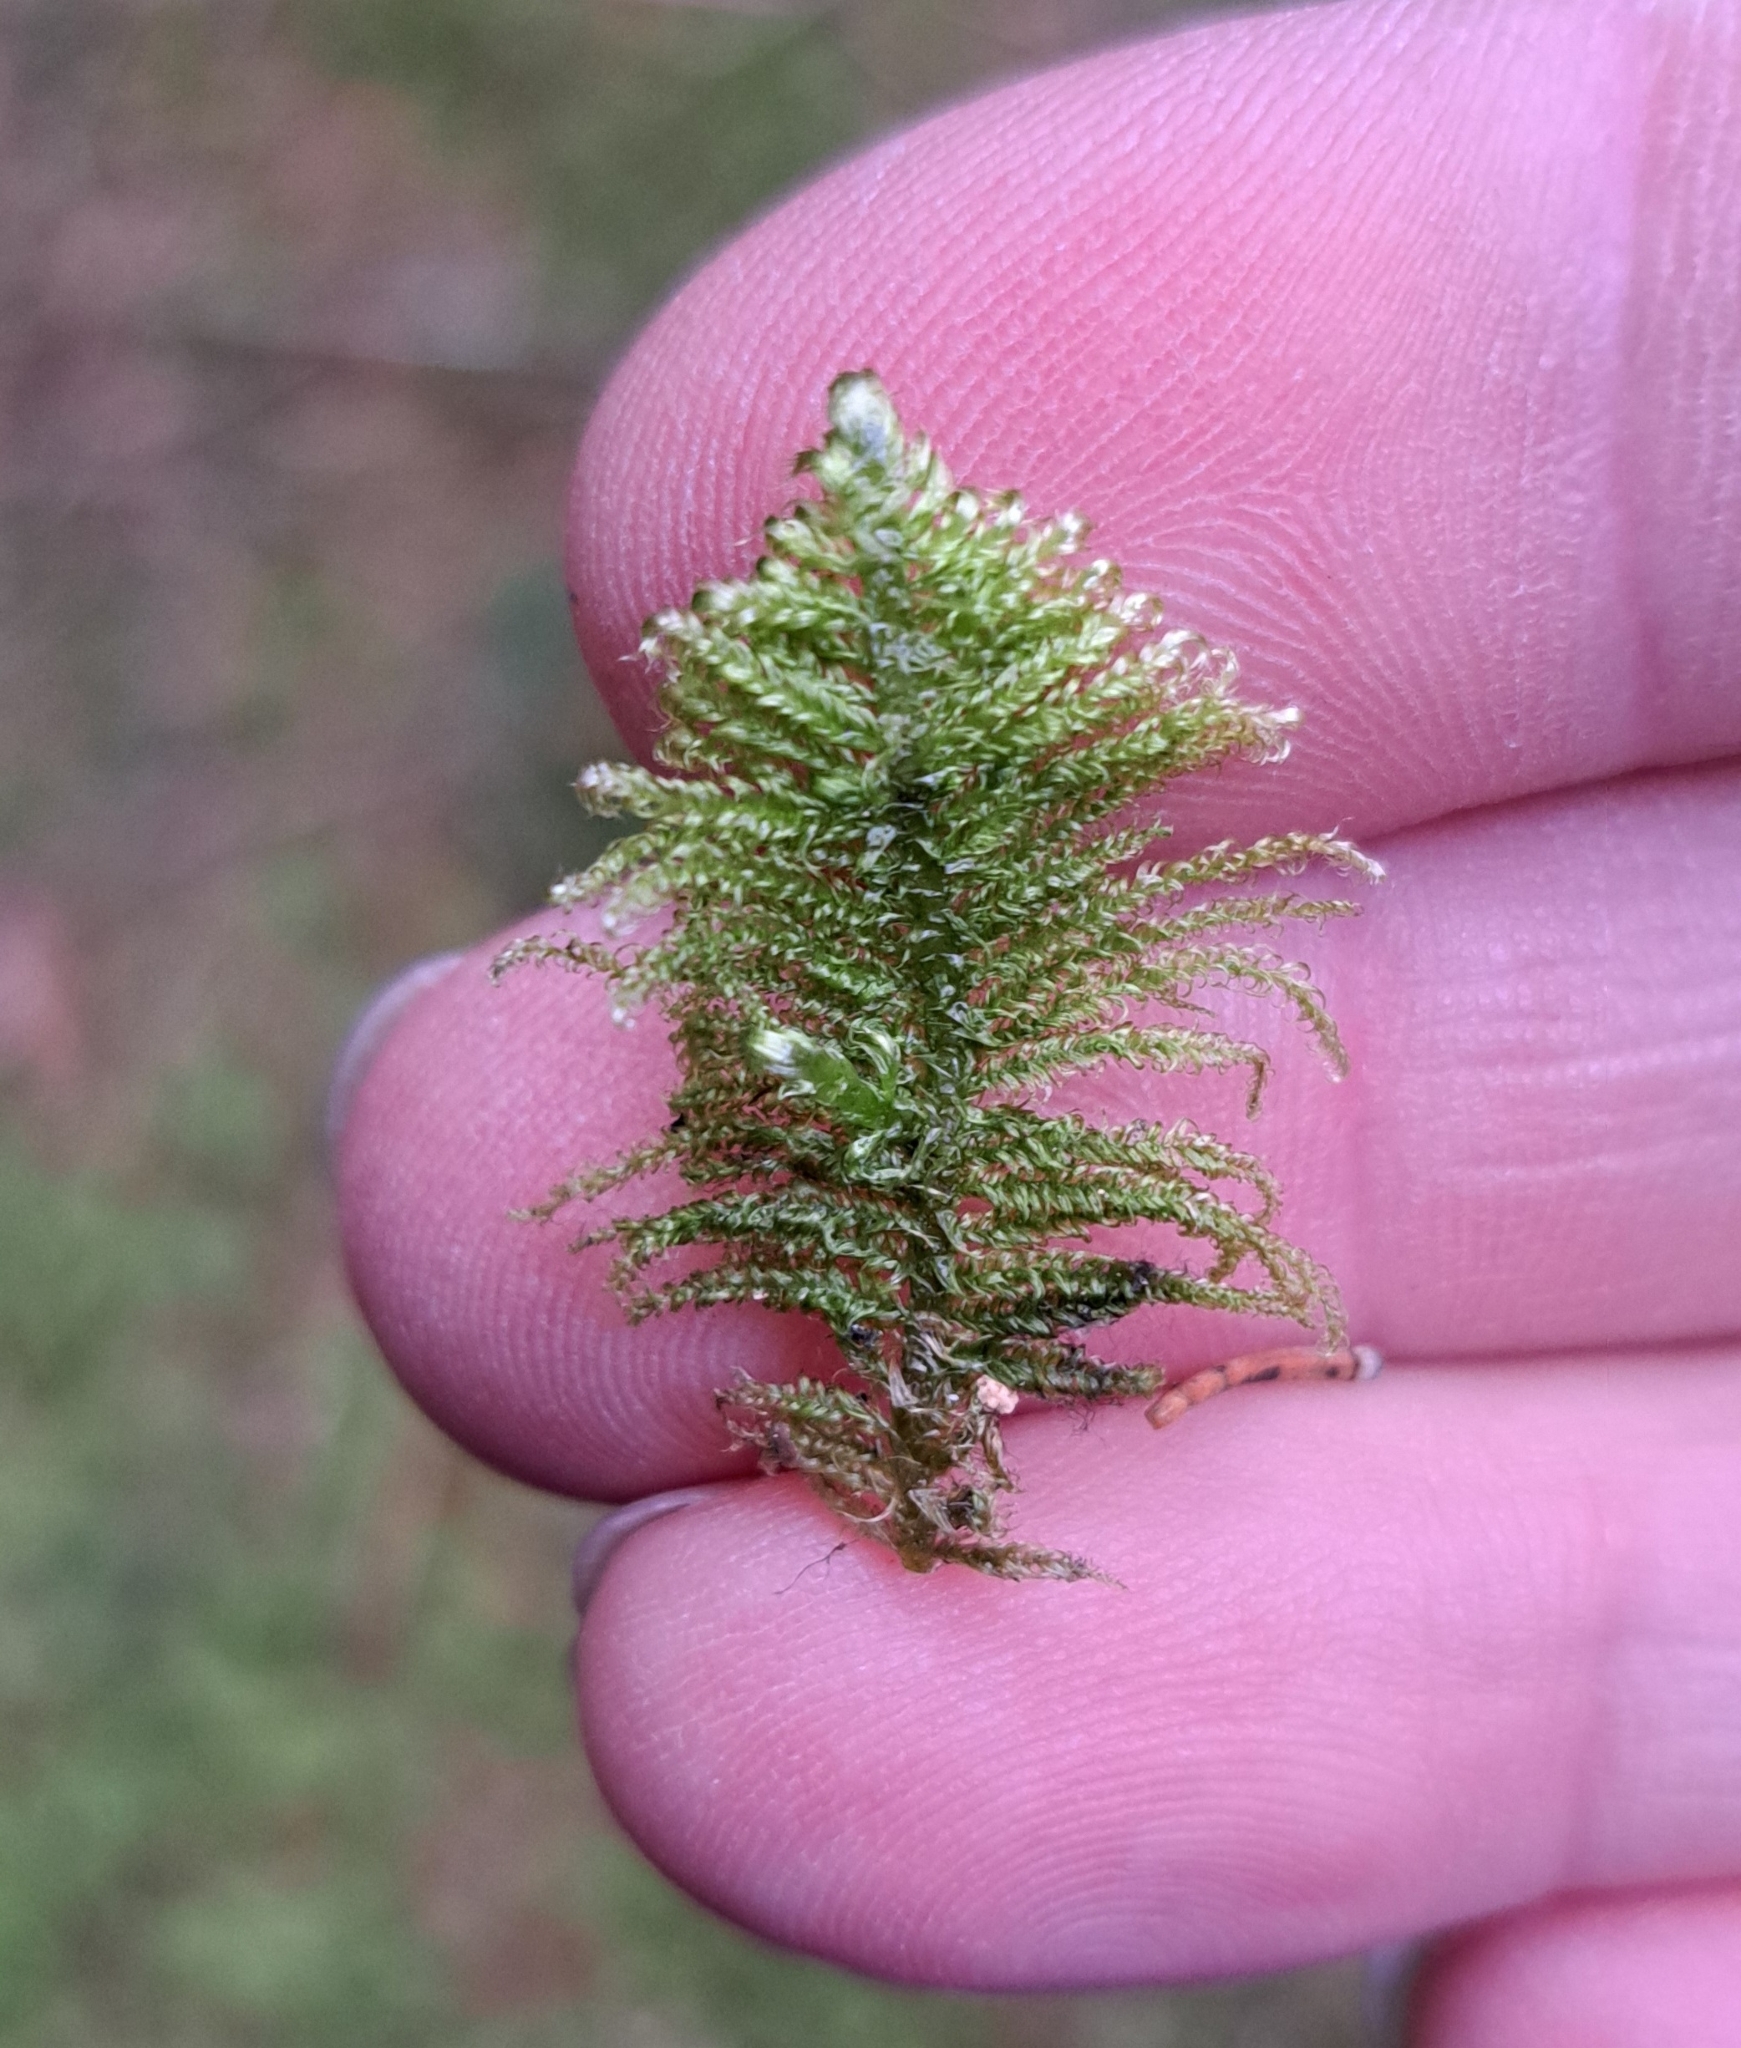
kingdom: Plantae
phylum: Bryophyta
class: Bryopsida
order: Hypnales
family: Pylaisiaceae
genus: Ptilium
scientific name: Ptilium crista-castrensis
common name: Knight's plume moss
